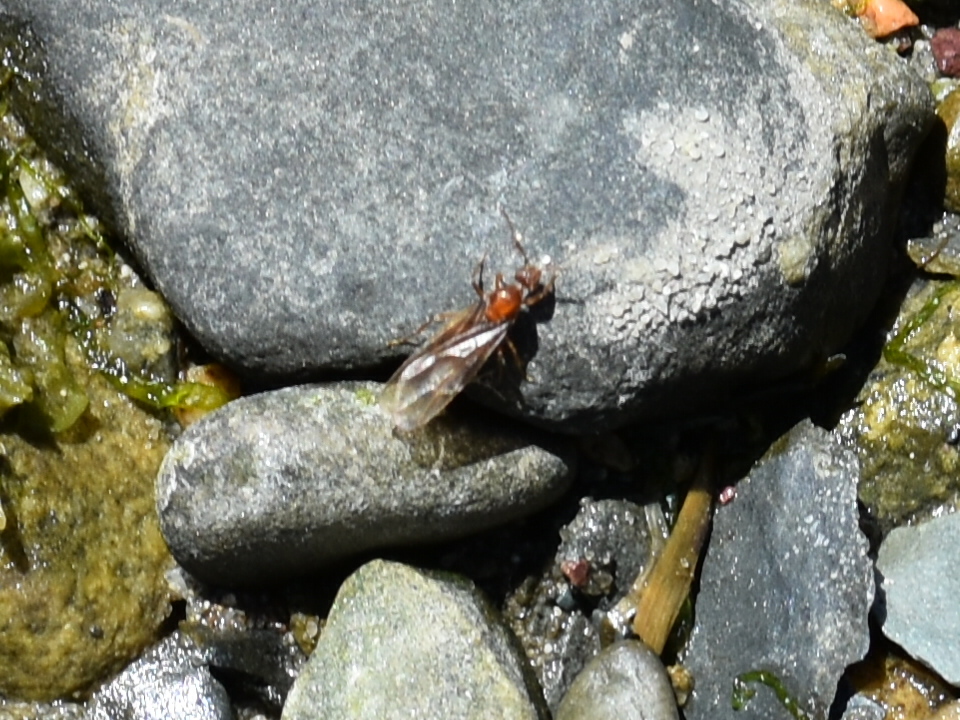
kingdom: Animalia
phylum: Arthropoda
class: Insecta
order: Hymenoptera
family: Formicidae
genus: Prenolepis
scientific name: Prenolepis imparis
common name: Small honey ant
